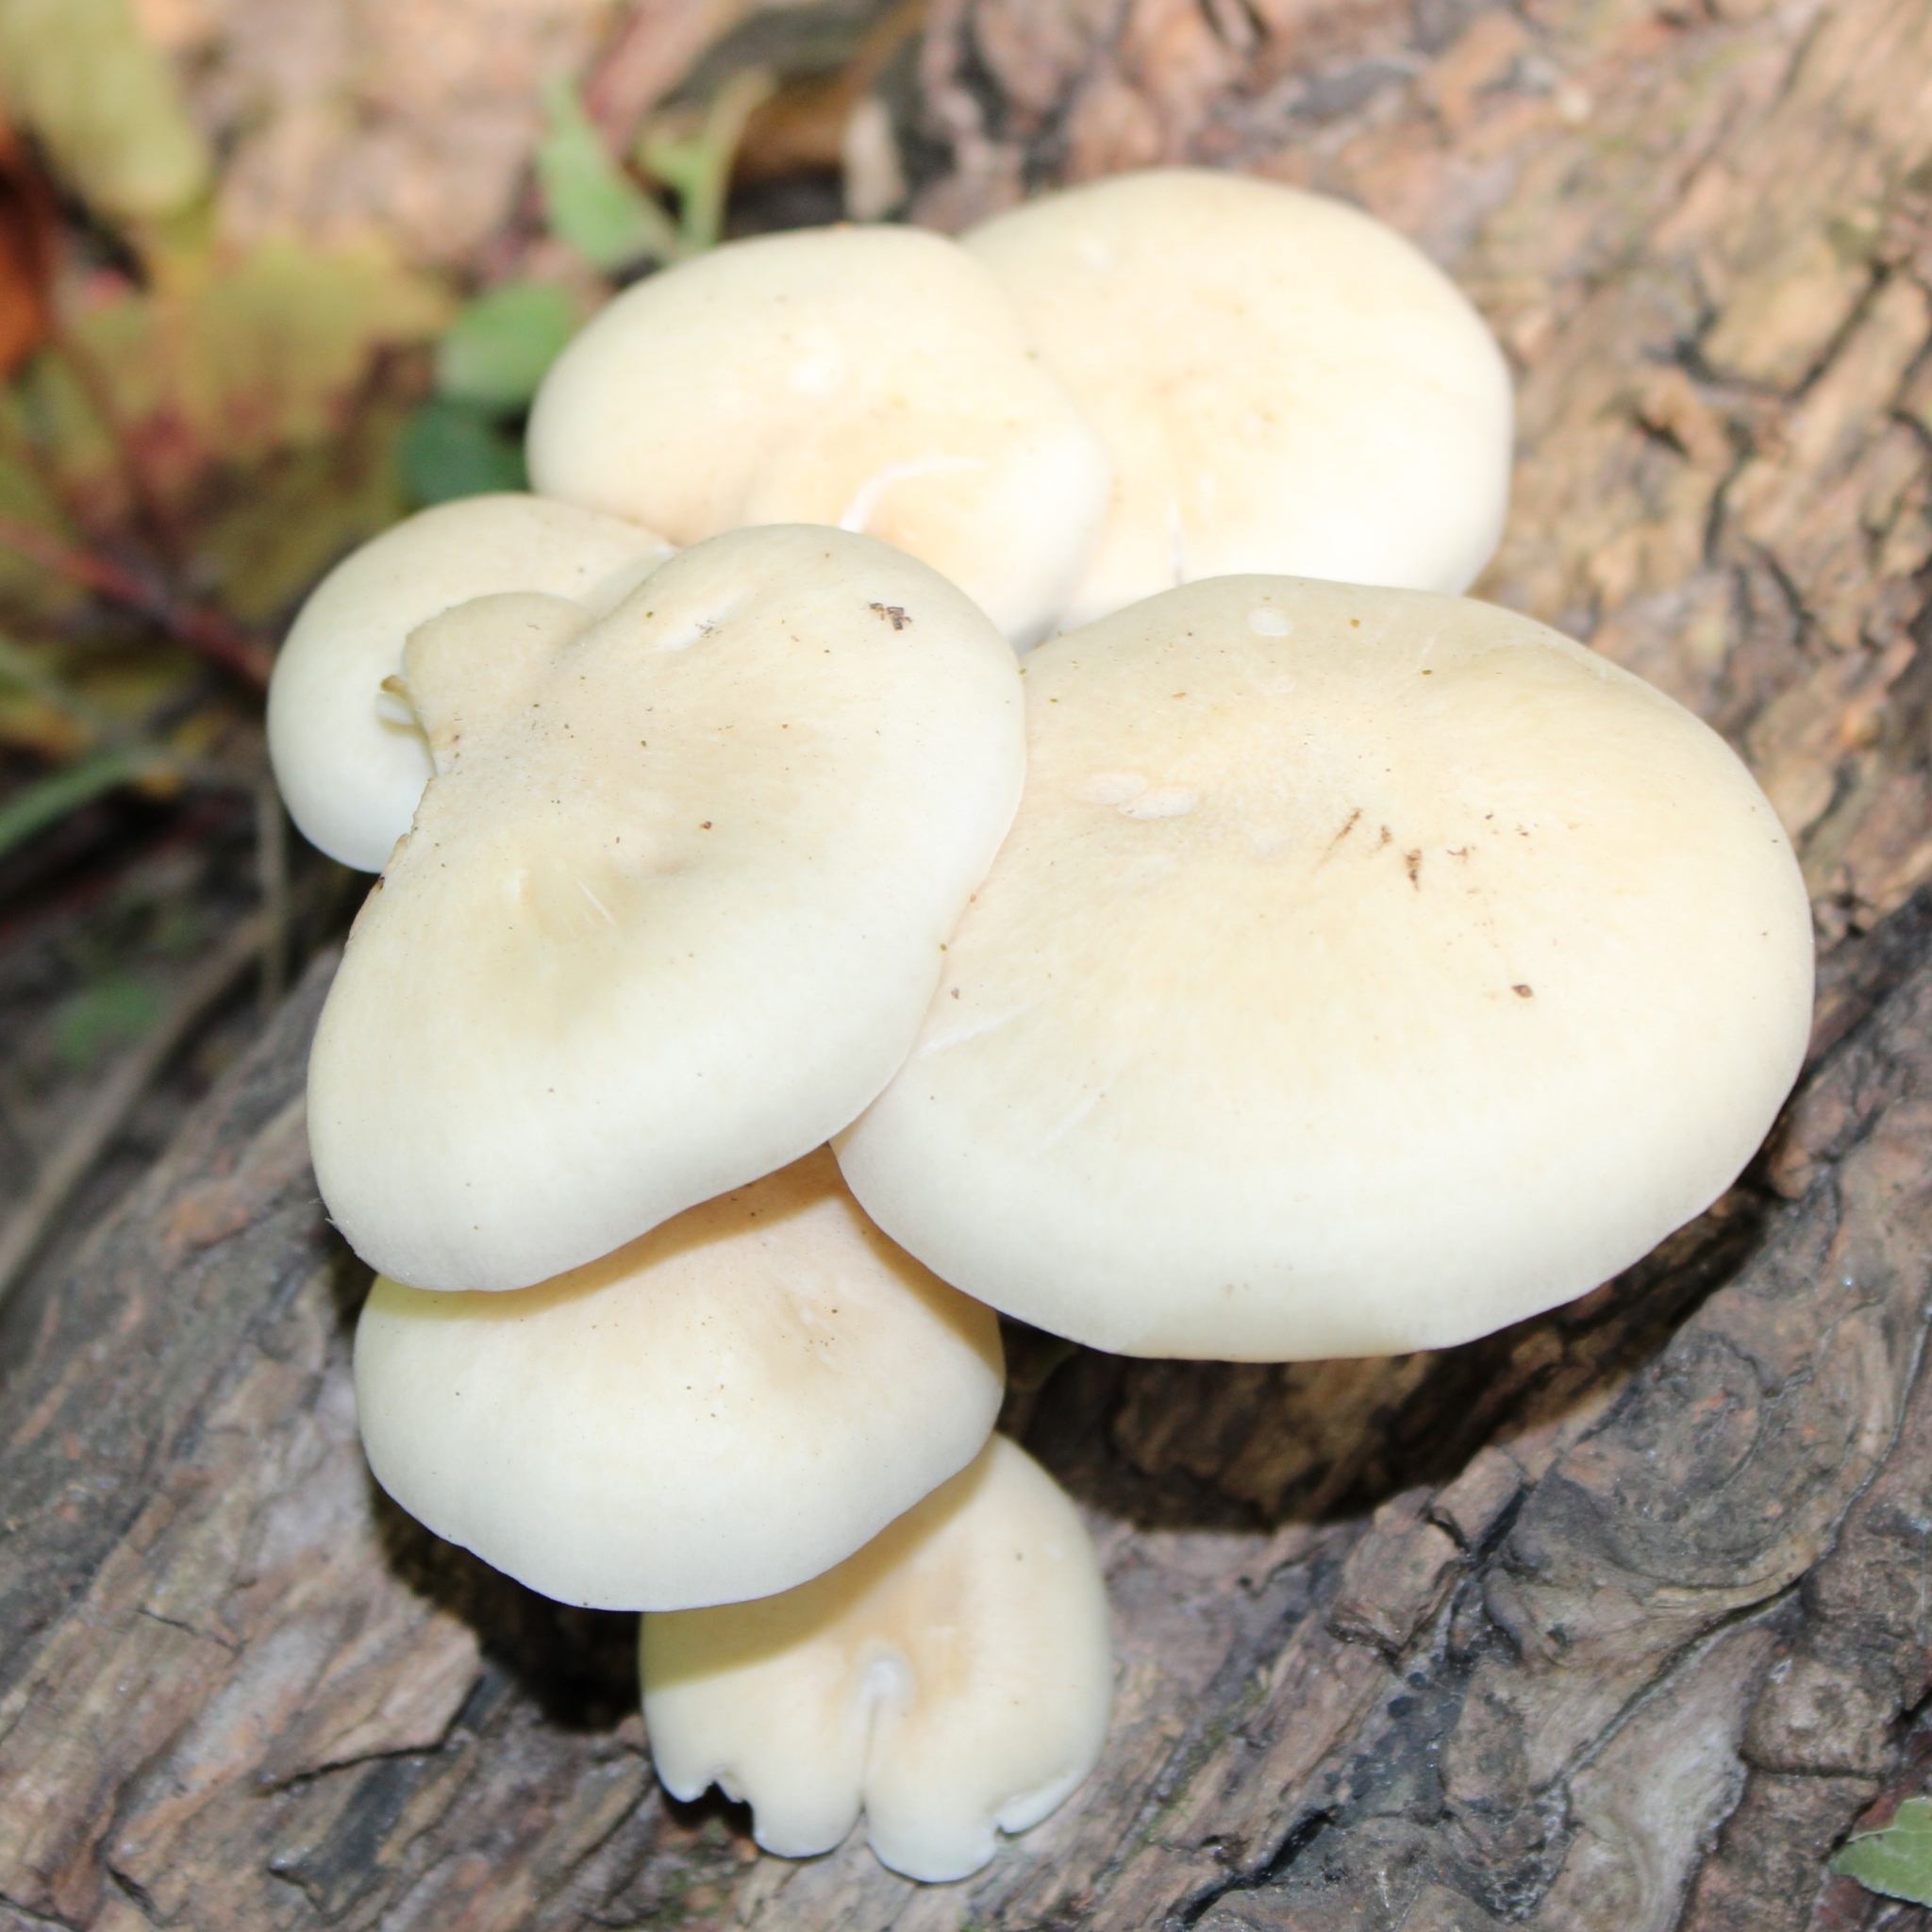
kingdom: Fungi
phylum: Basidiomycota
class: Agaricomycetes
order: Agaricales
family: Lyophyllaceae
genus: Hypsizygus
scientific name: Hypsizygus ulmarius
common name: Elm leech
